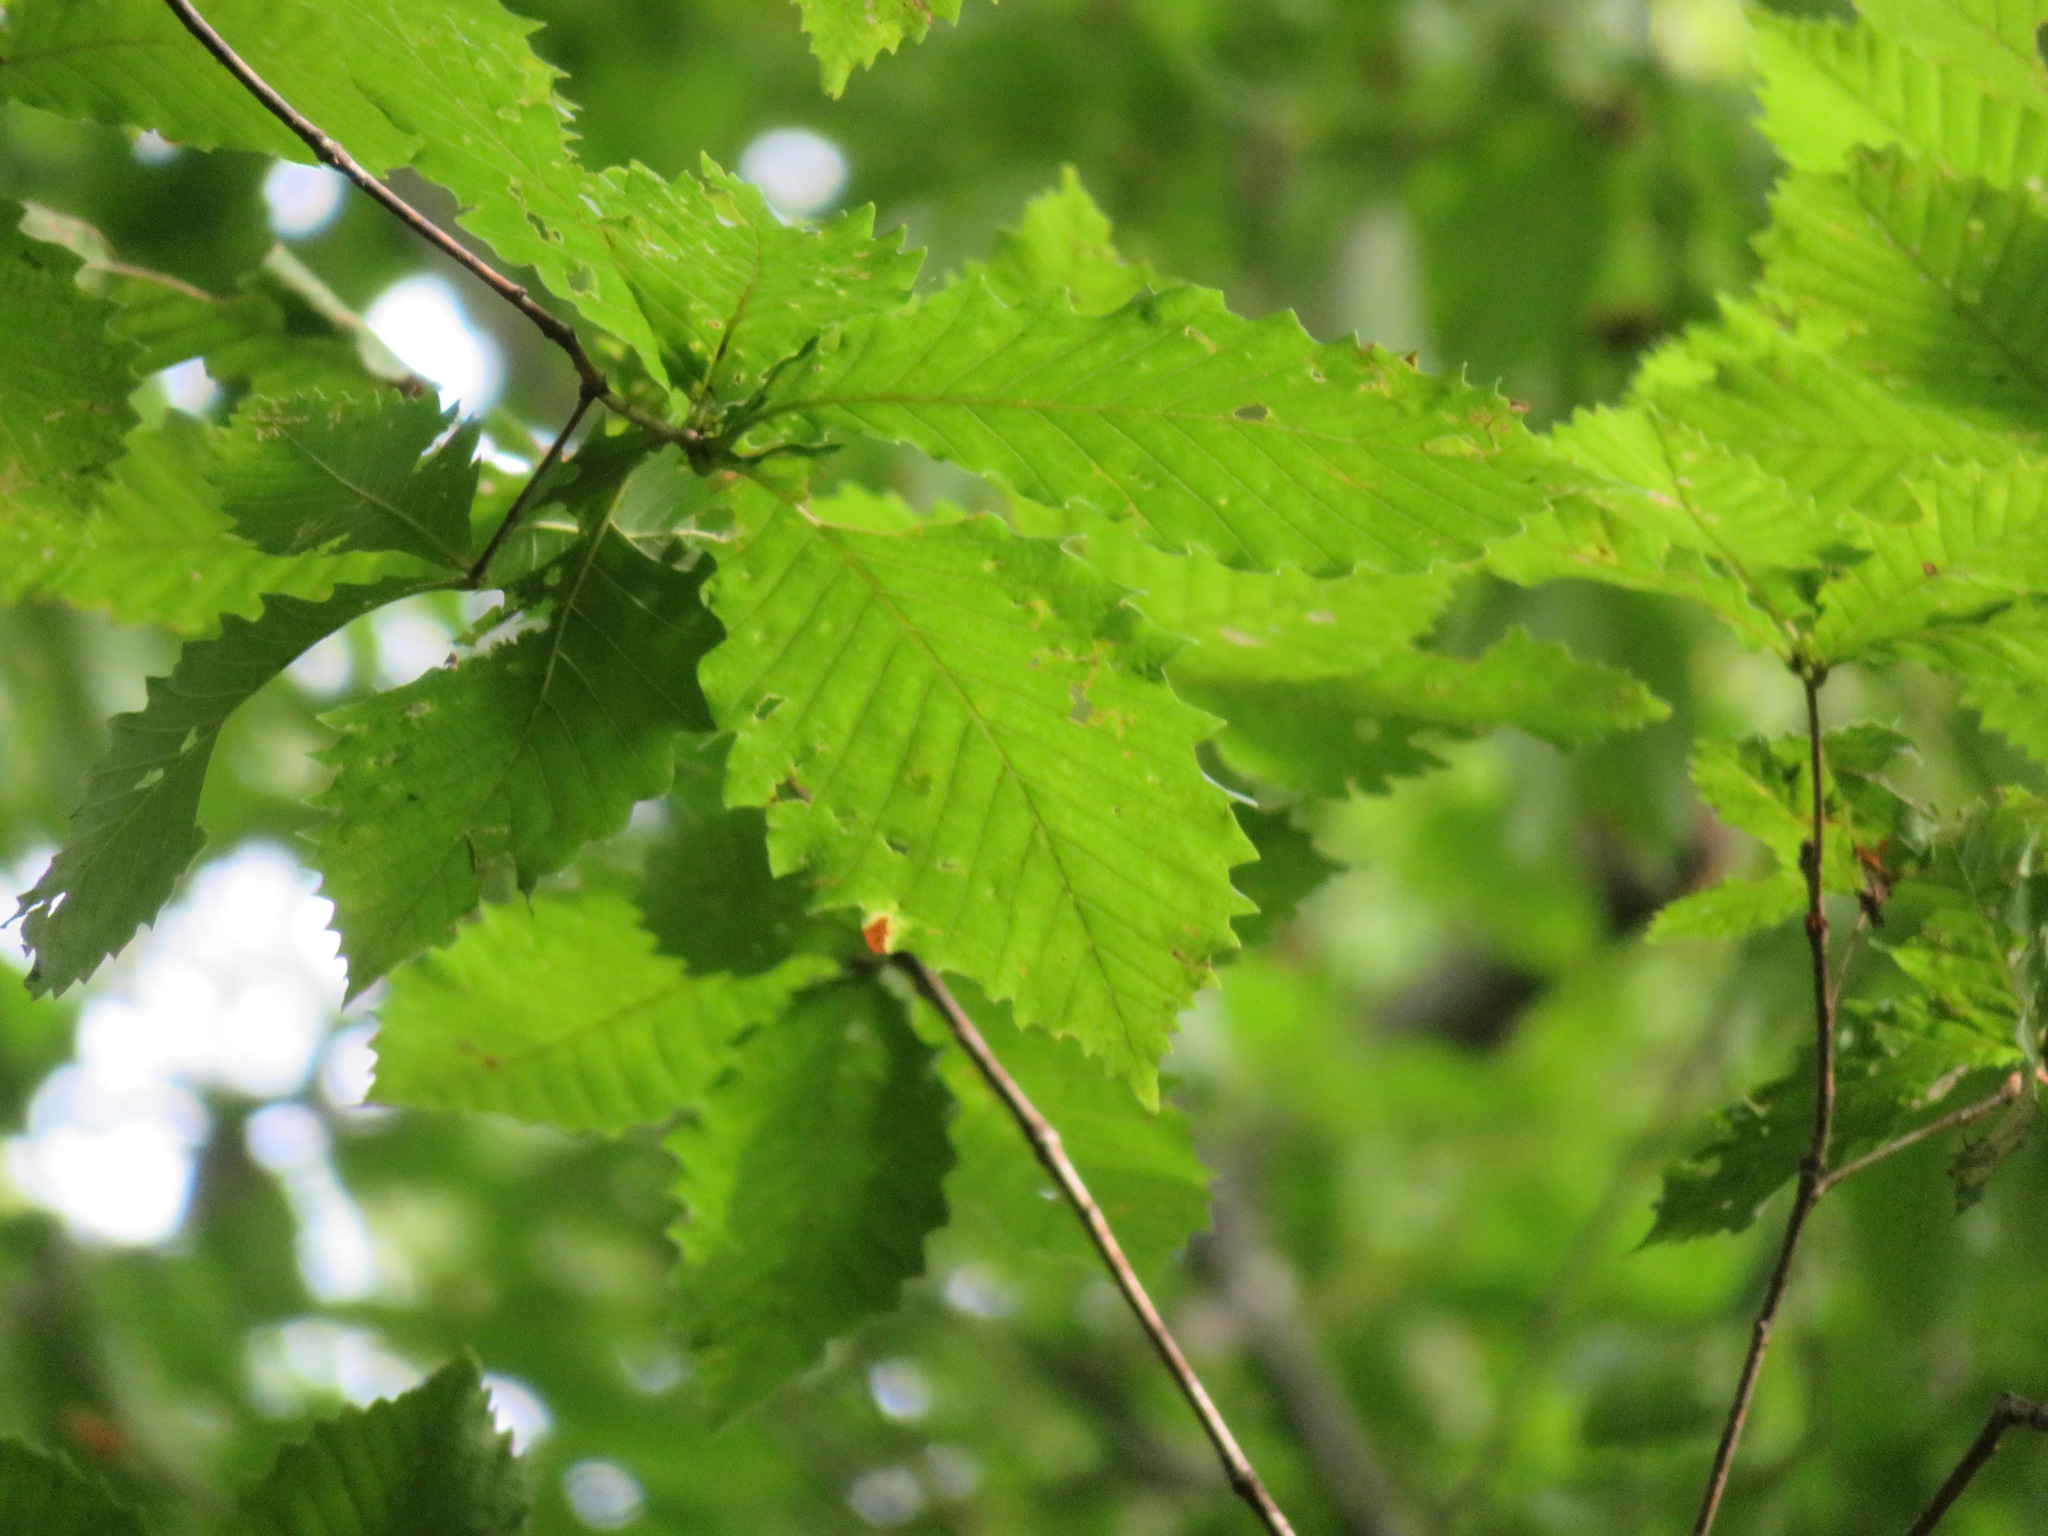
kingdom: Plantae
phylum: Tracheophyta
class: Magnoliopsida
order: Fagales
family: Fagaceae
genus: Quercus
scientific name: Quercus crispula
